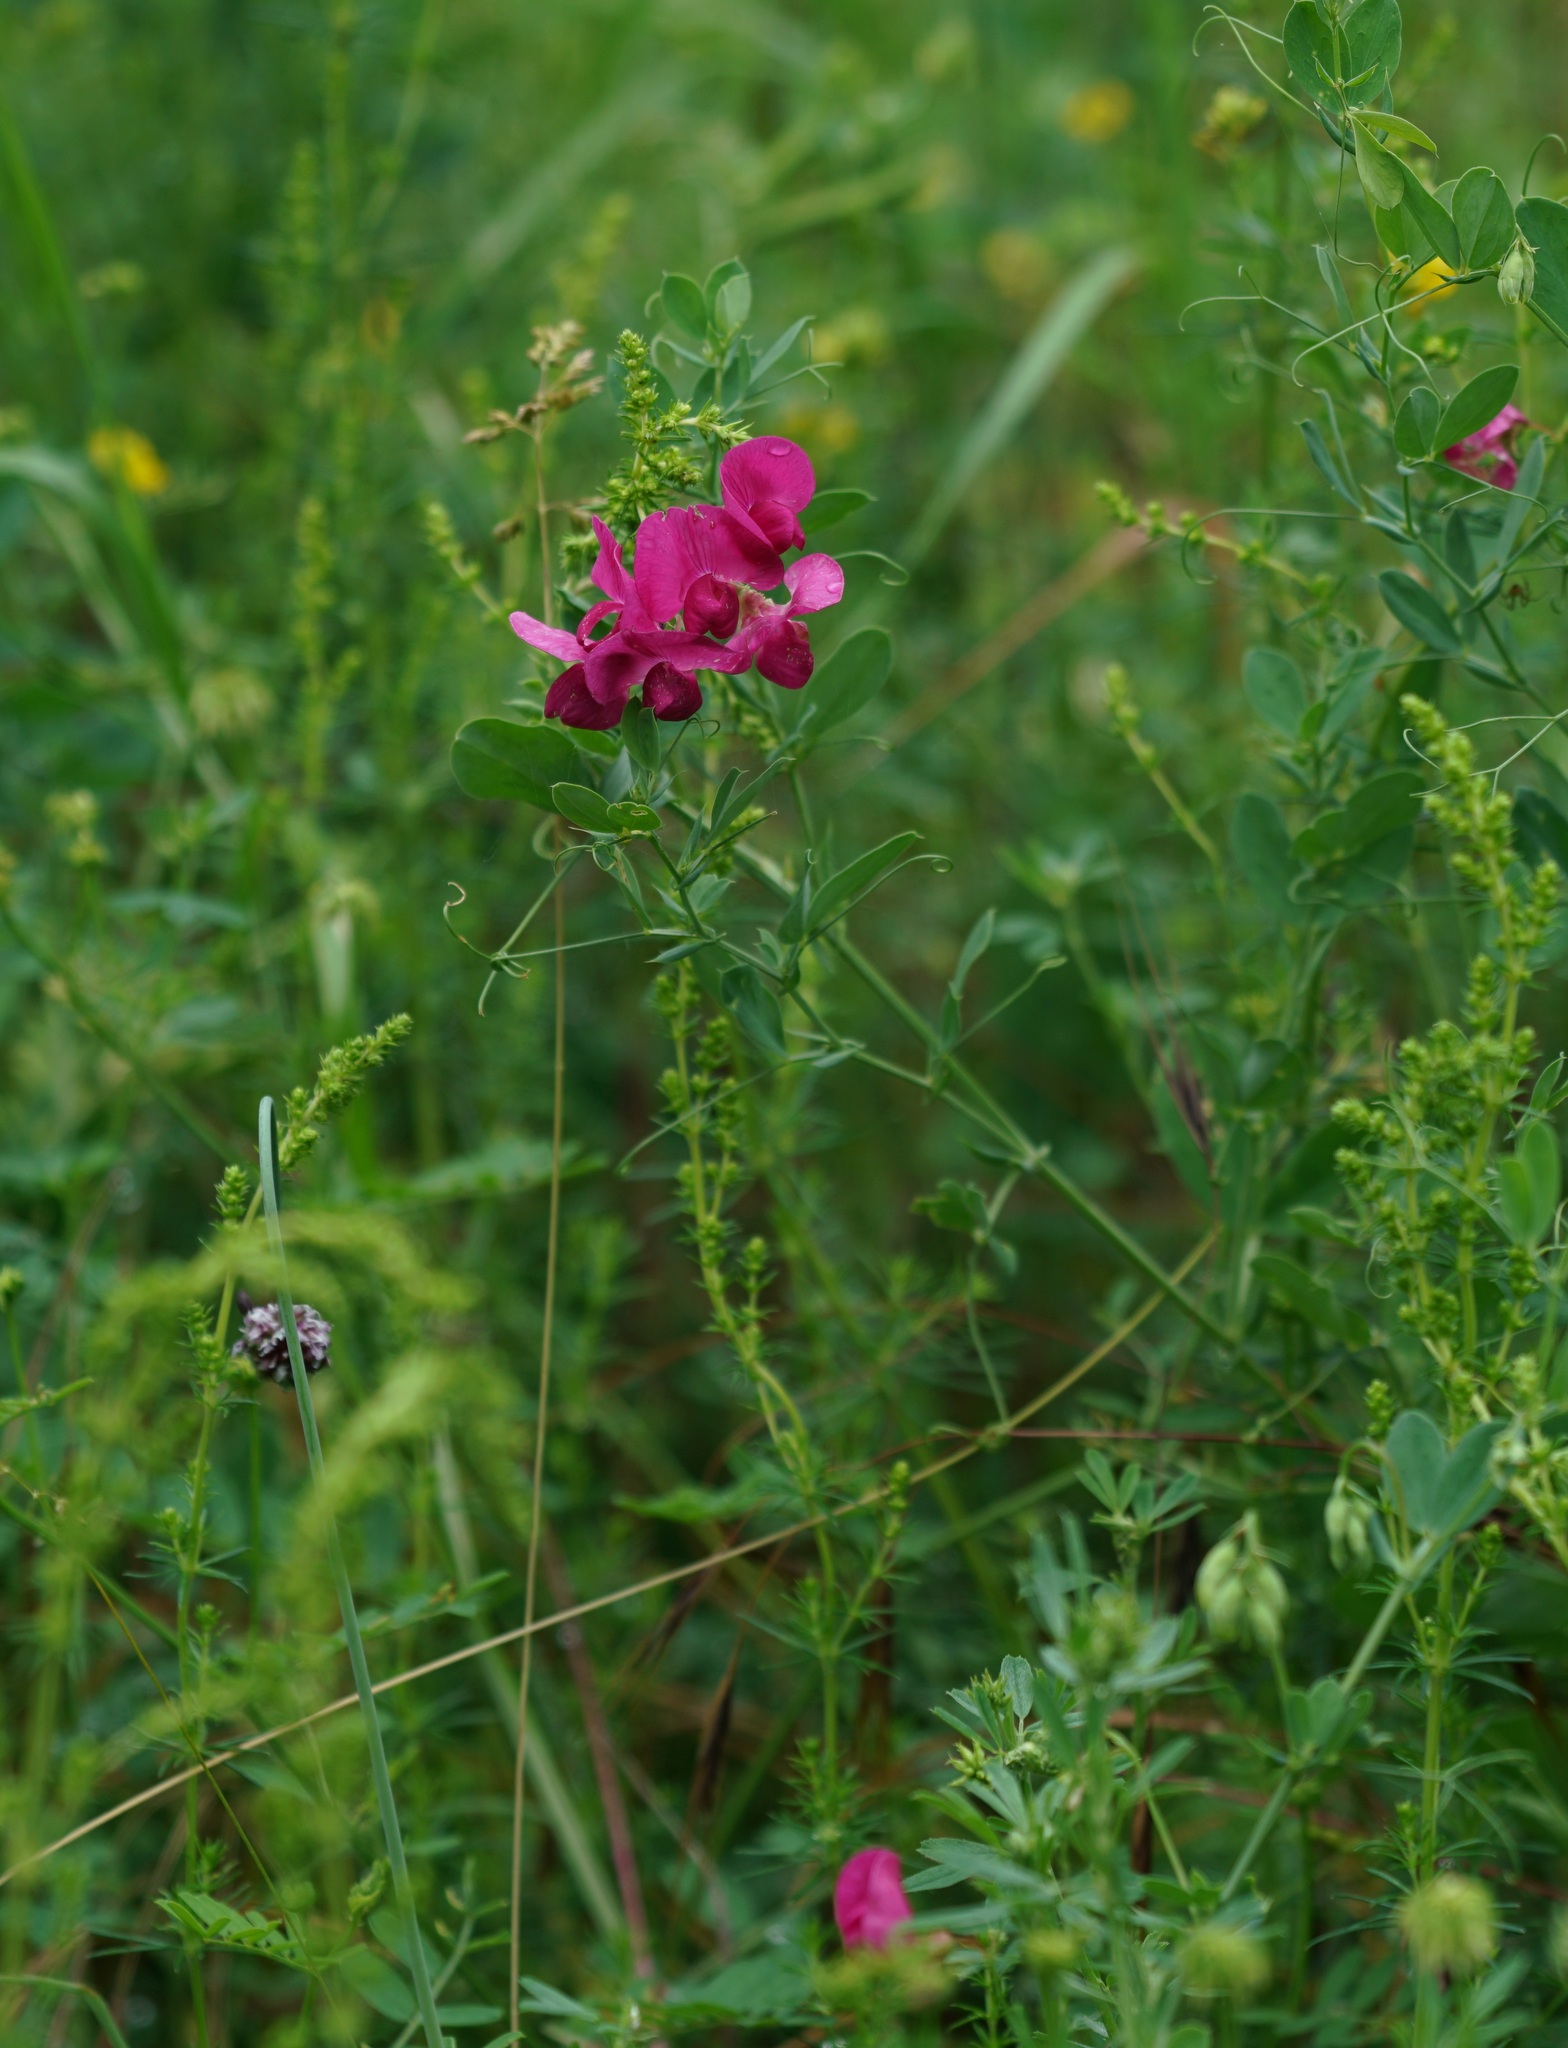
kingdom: Plantae
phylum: Tracheophyta
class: Magnoliopsida
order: Fabales
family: Fabaceae
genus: Lathyrus
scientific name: Lathyrus tuberosus
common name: Tuberous pea
